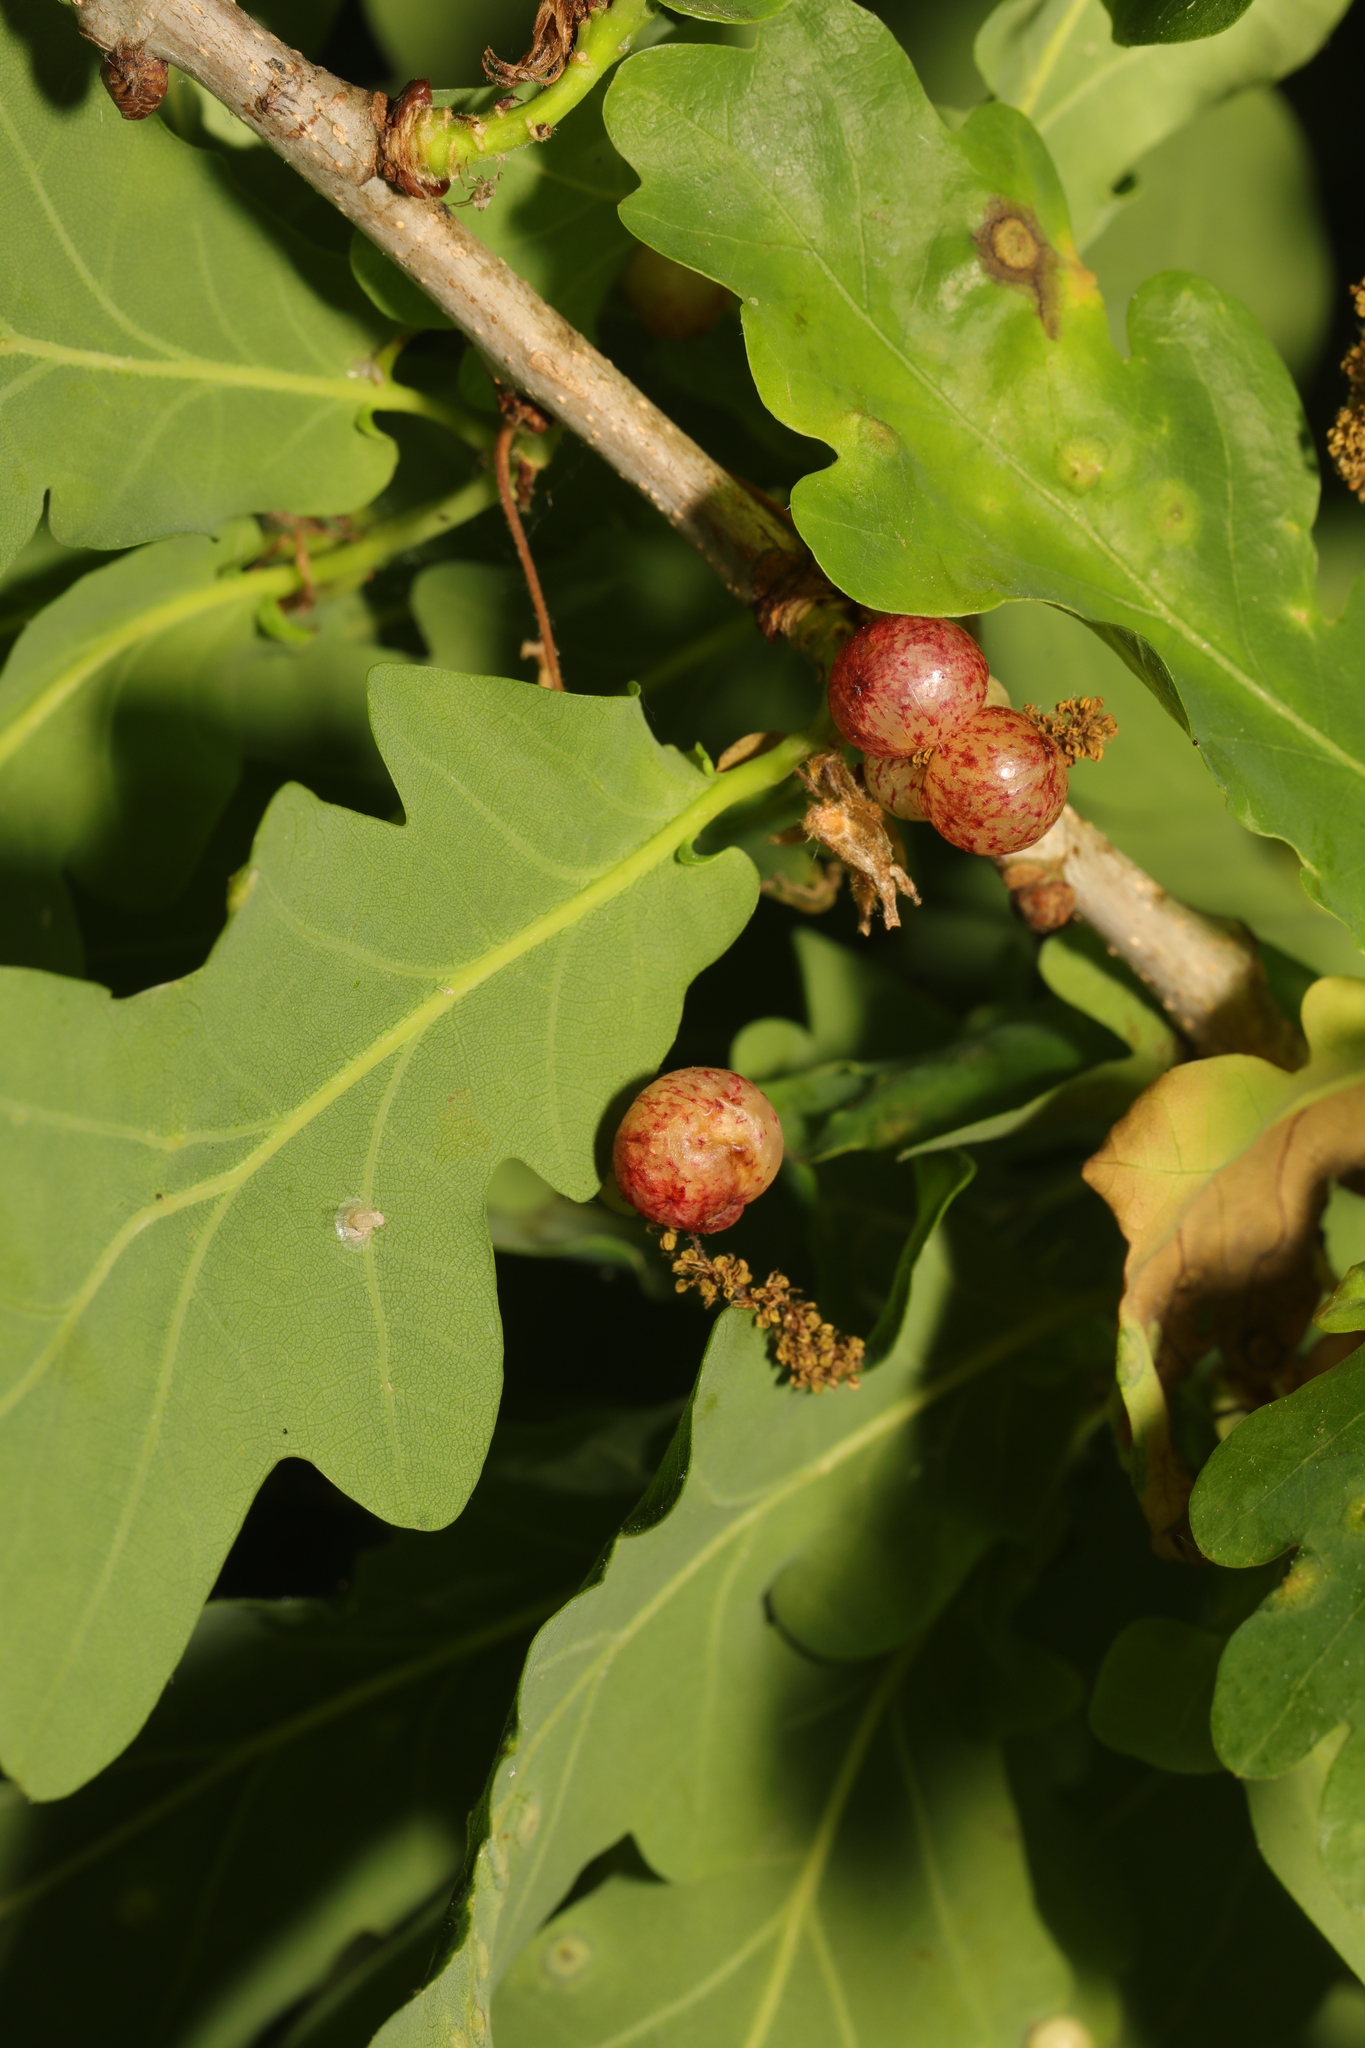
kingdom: Animalia
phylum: Arthropoda
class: Insecta
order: Hymenoptera
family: Cynipidae
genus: Neuroterus
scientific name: Neuroterus quercusbaccarum
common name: Common spangle gall
